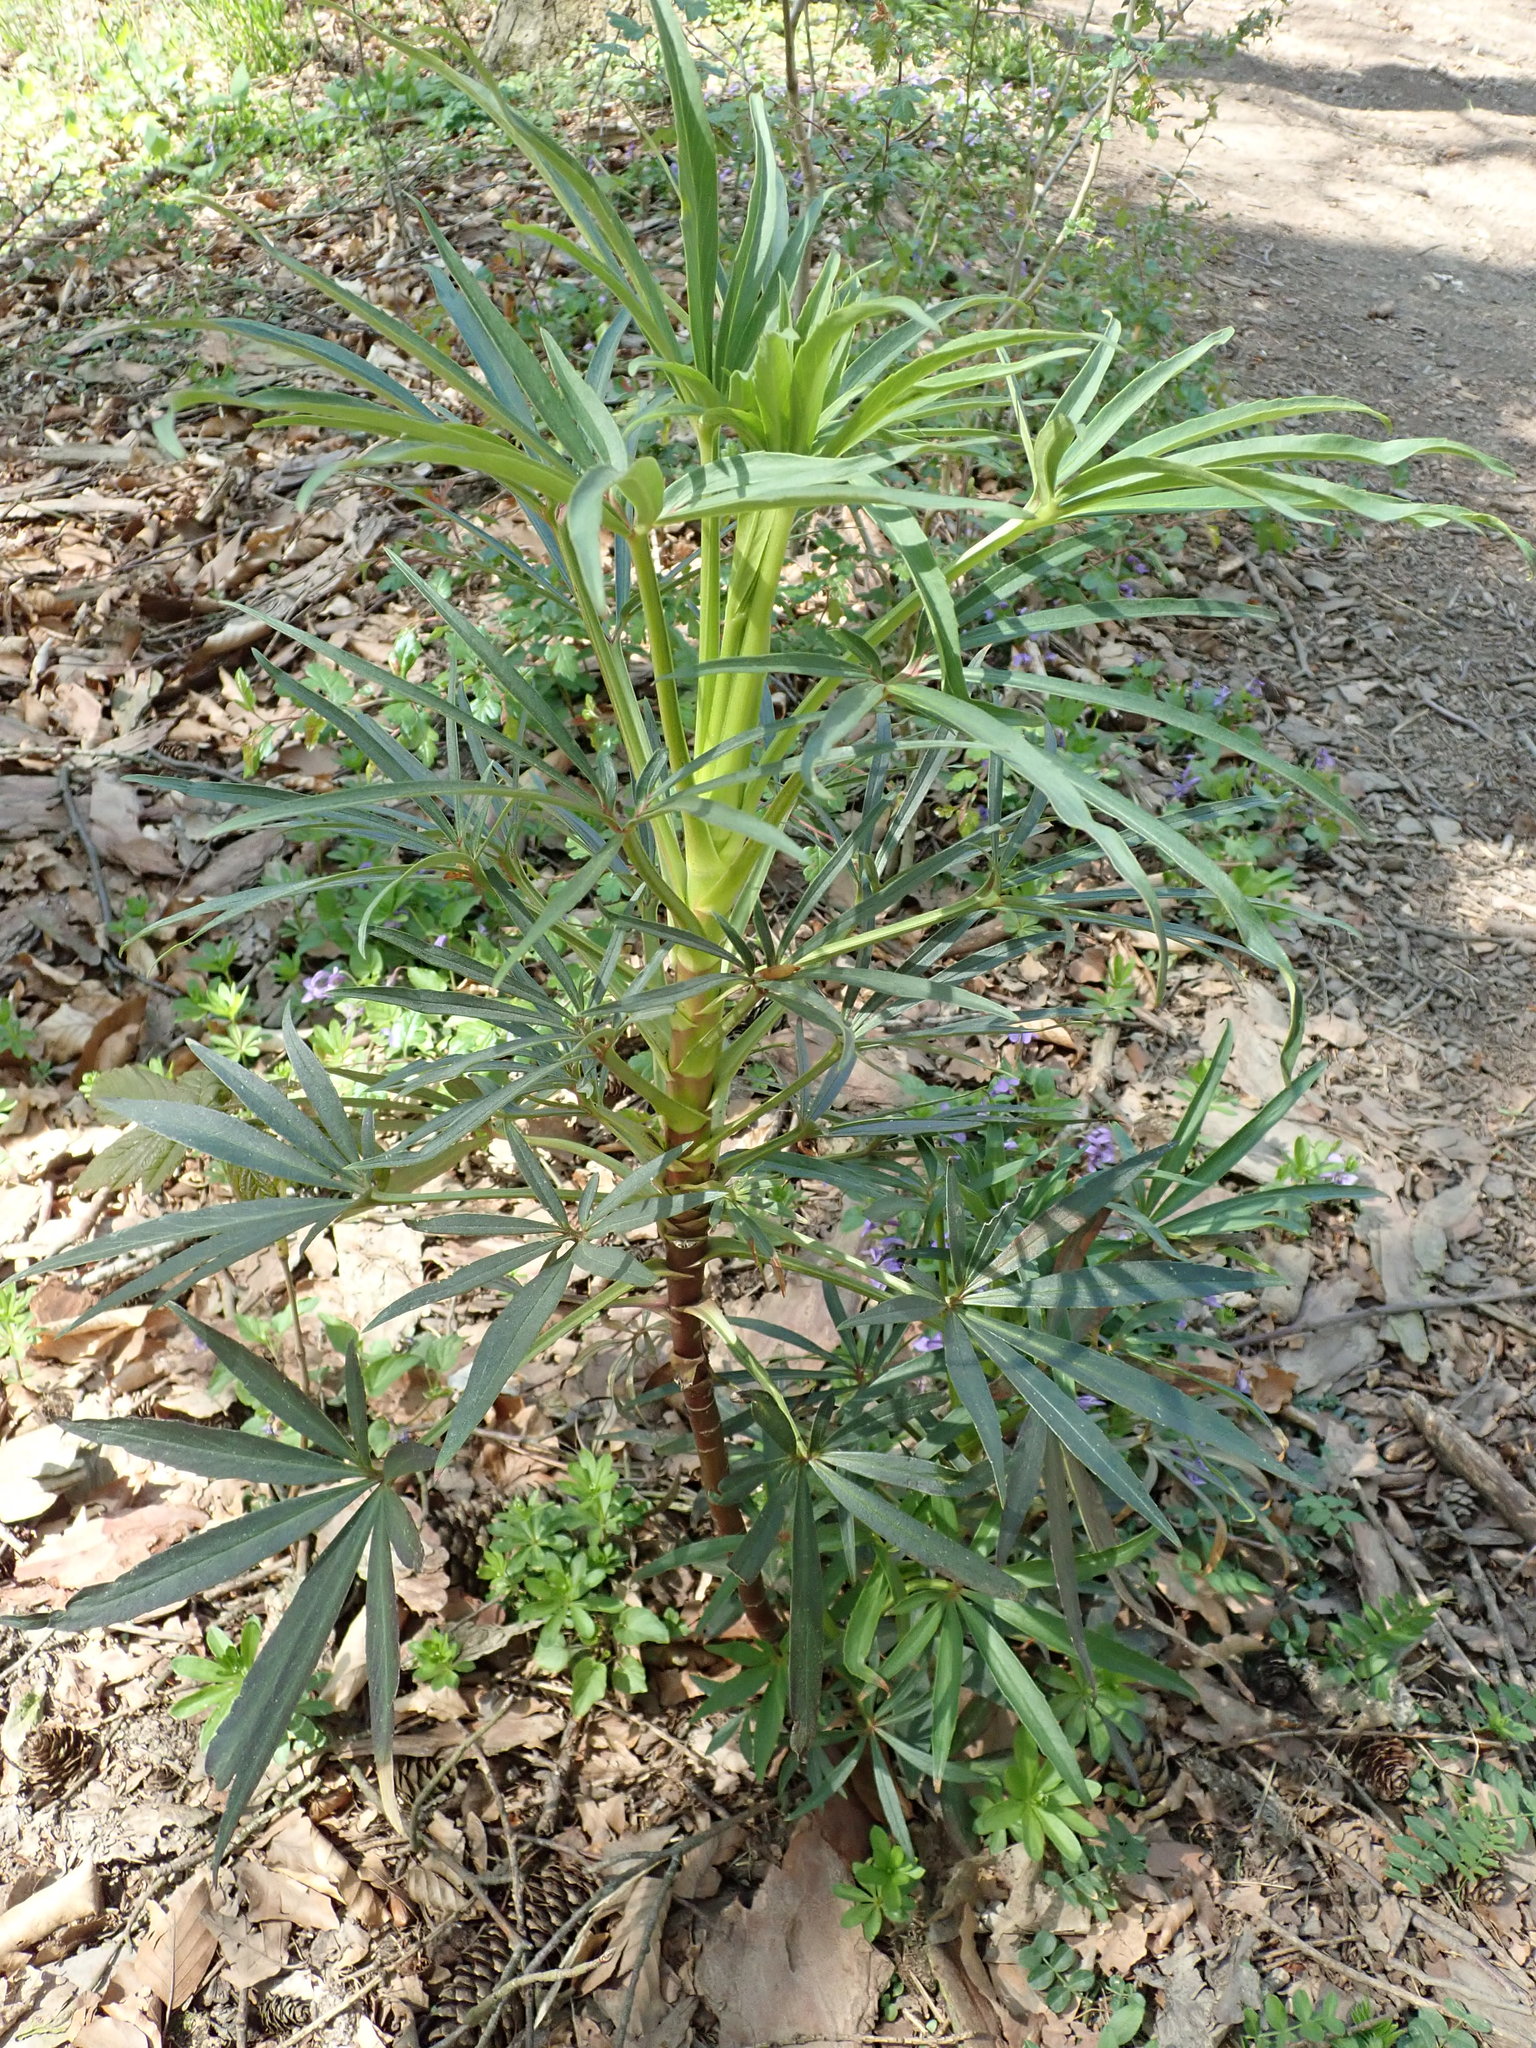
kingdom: Plantae
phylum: Tracheophyta
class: Magnoliopsida
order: Ranunculales
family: Ranunculaceae
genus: Helleborus
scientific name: Helleborus foetidus
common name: Stinking hellebore
